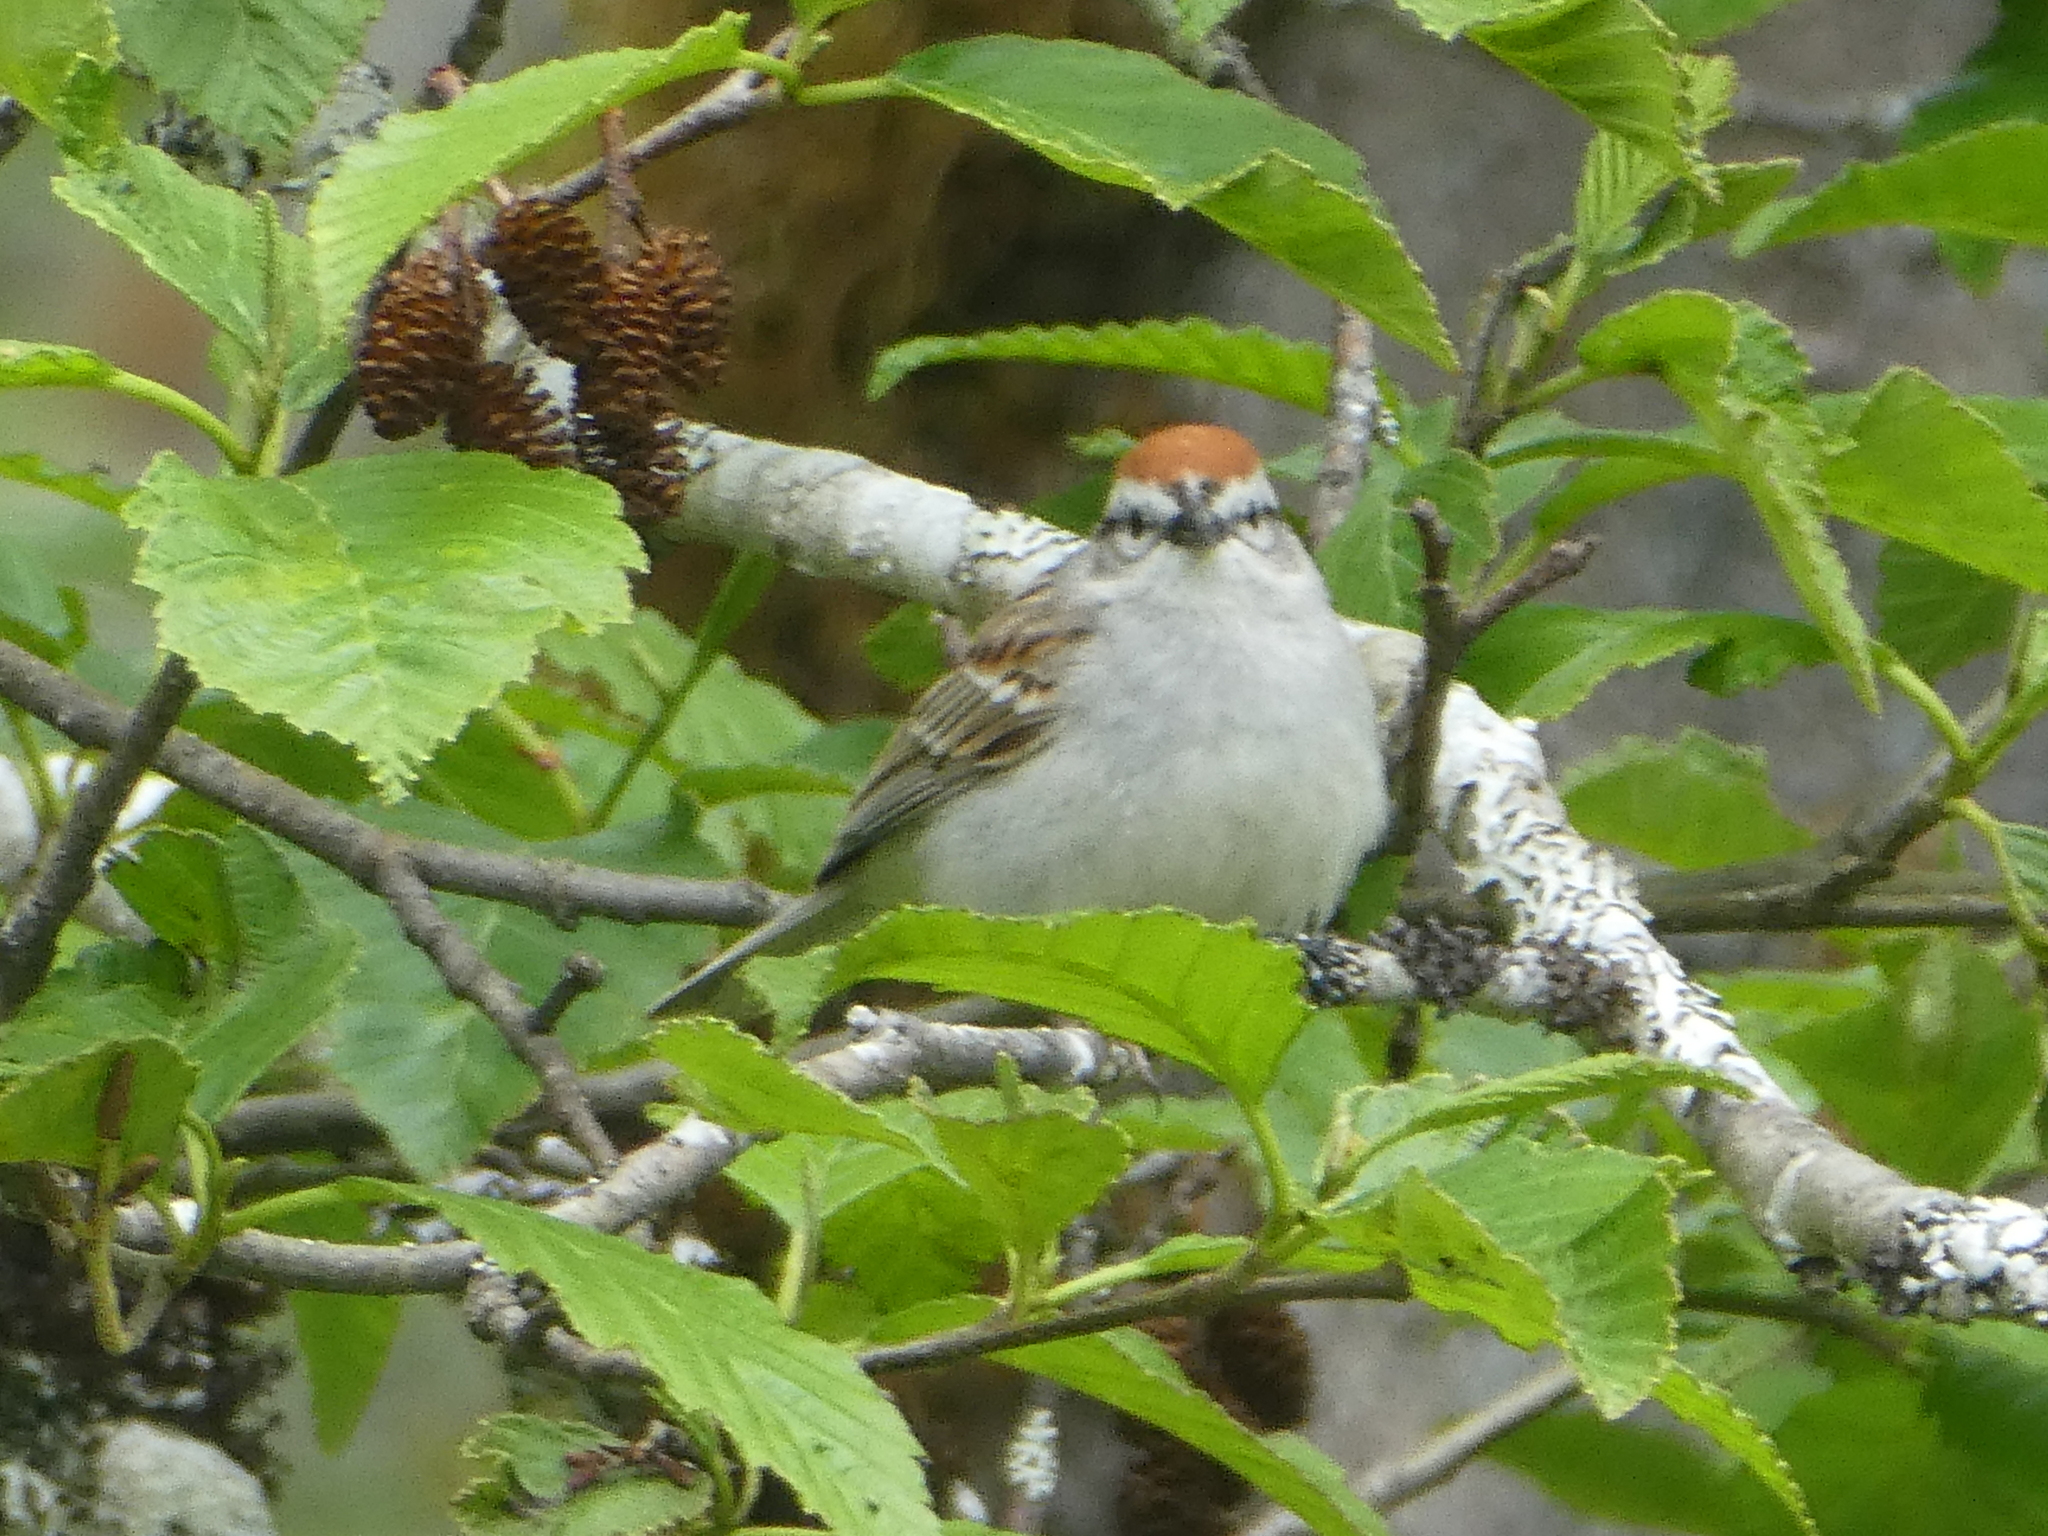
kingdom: Animalia
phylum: Chordata
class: Aves
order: Passeriformes
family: Passerellidae
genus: Spizella
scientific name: Spizella passerina
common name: Chipping sparrow
